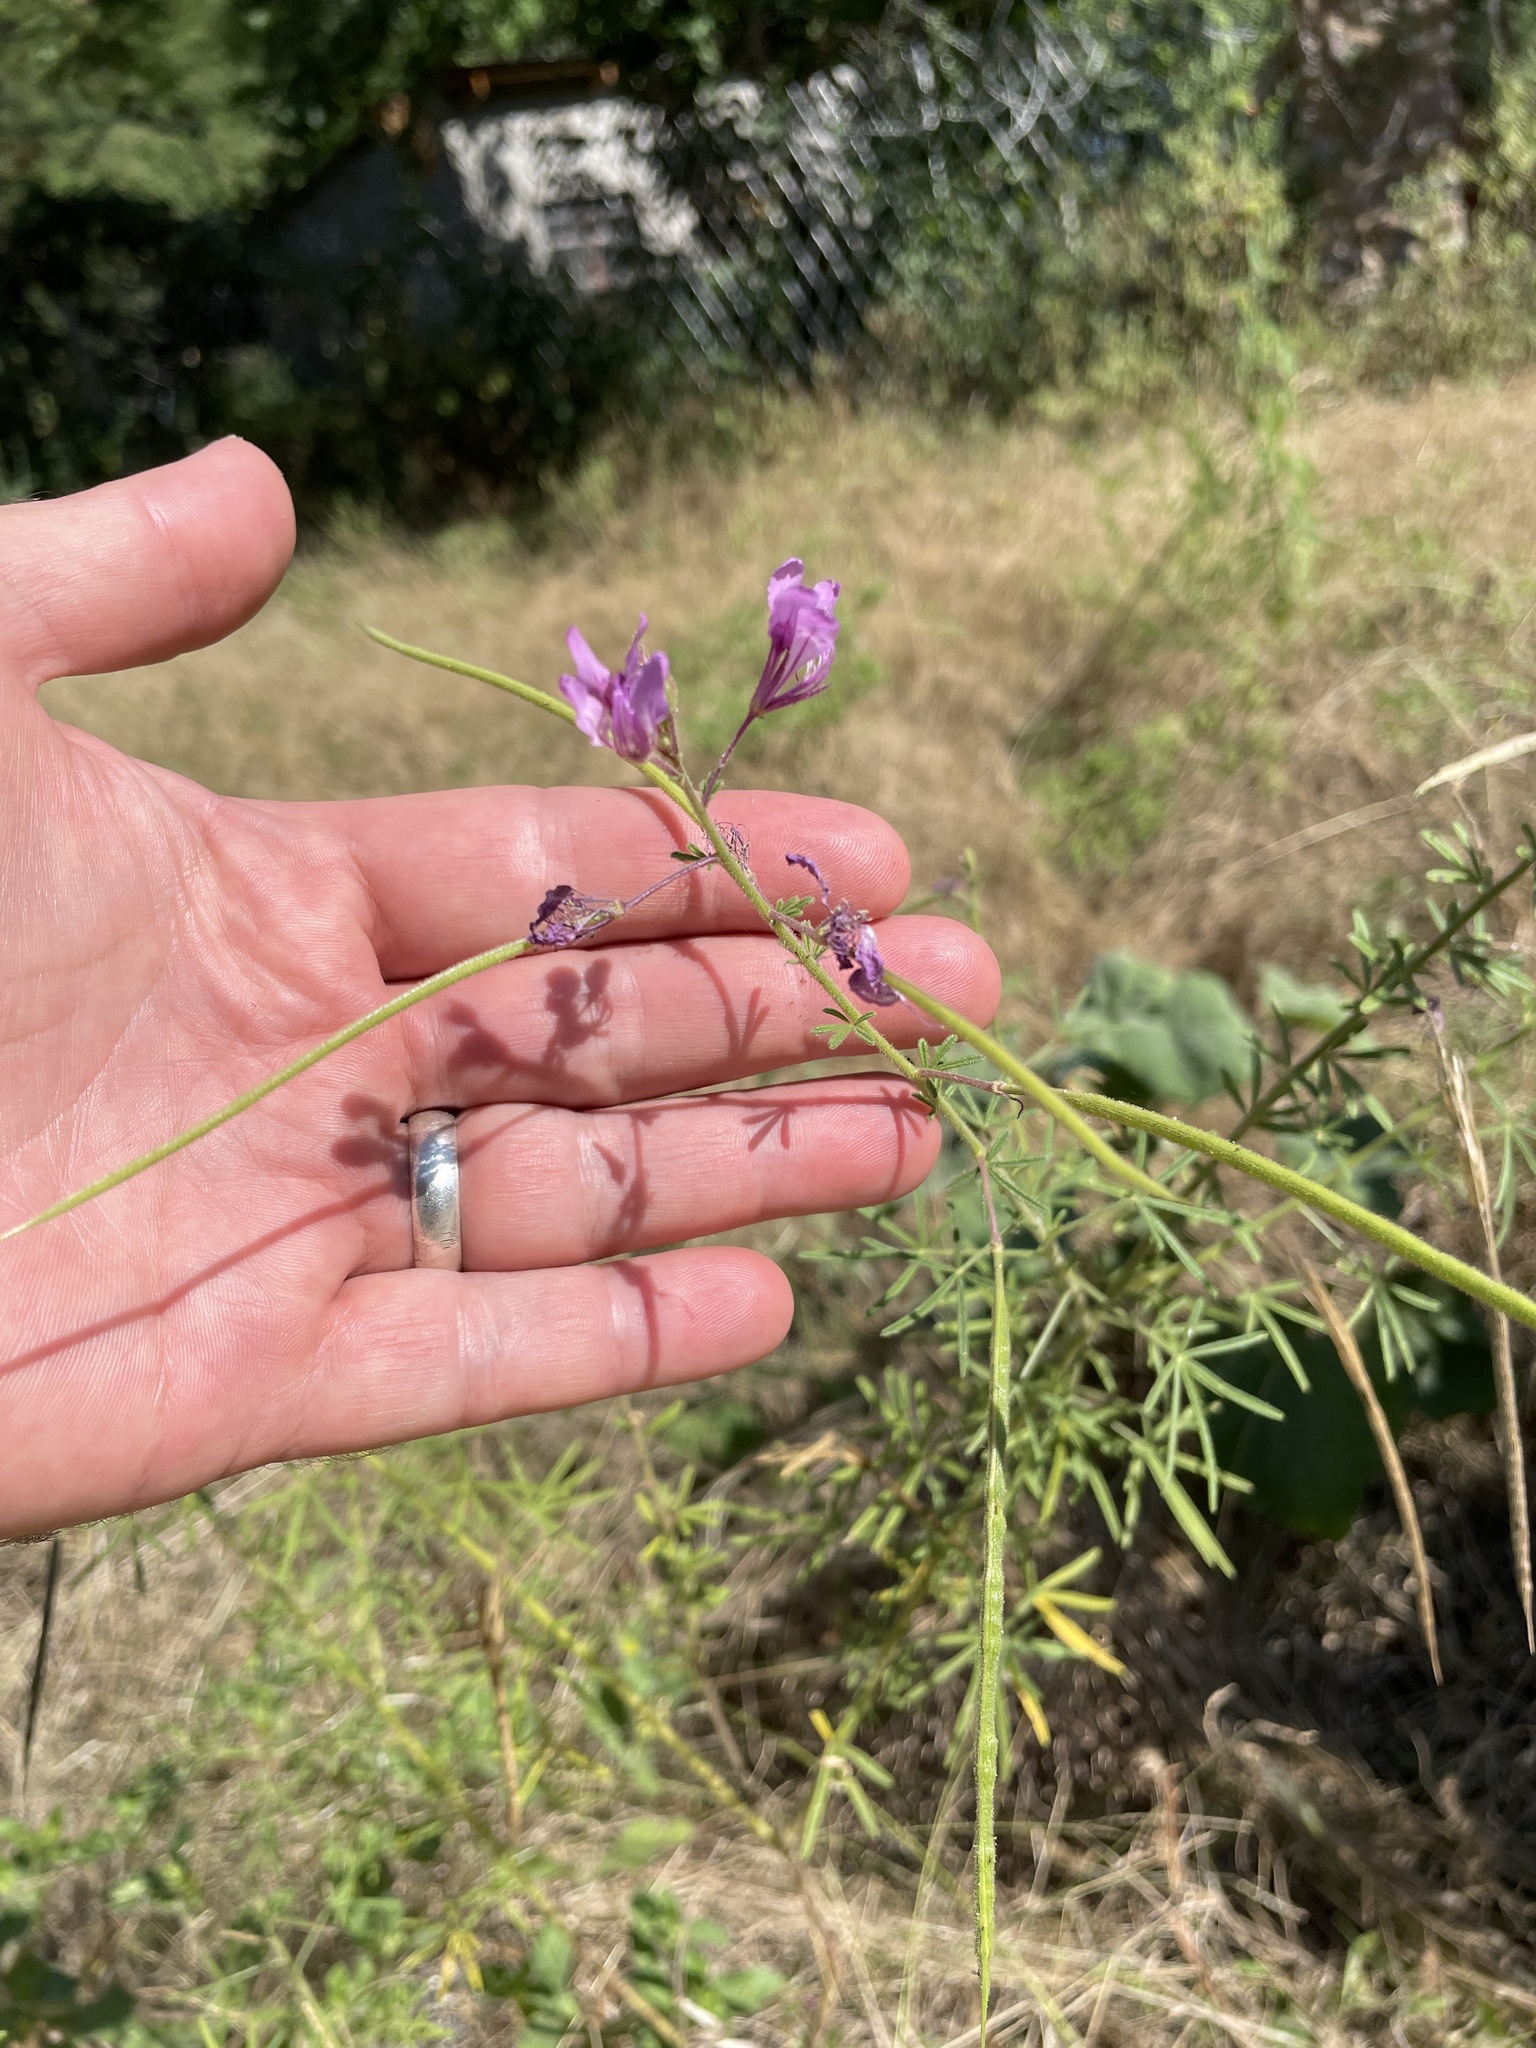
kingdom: Plantae
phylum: Tracheophyta
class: Magnoliopsida
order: Brassicales
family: Cleomaceae
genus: Sieruela
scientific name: Sieruela
